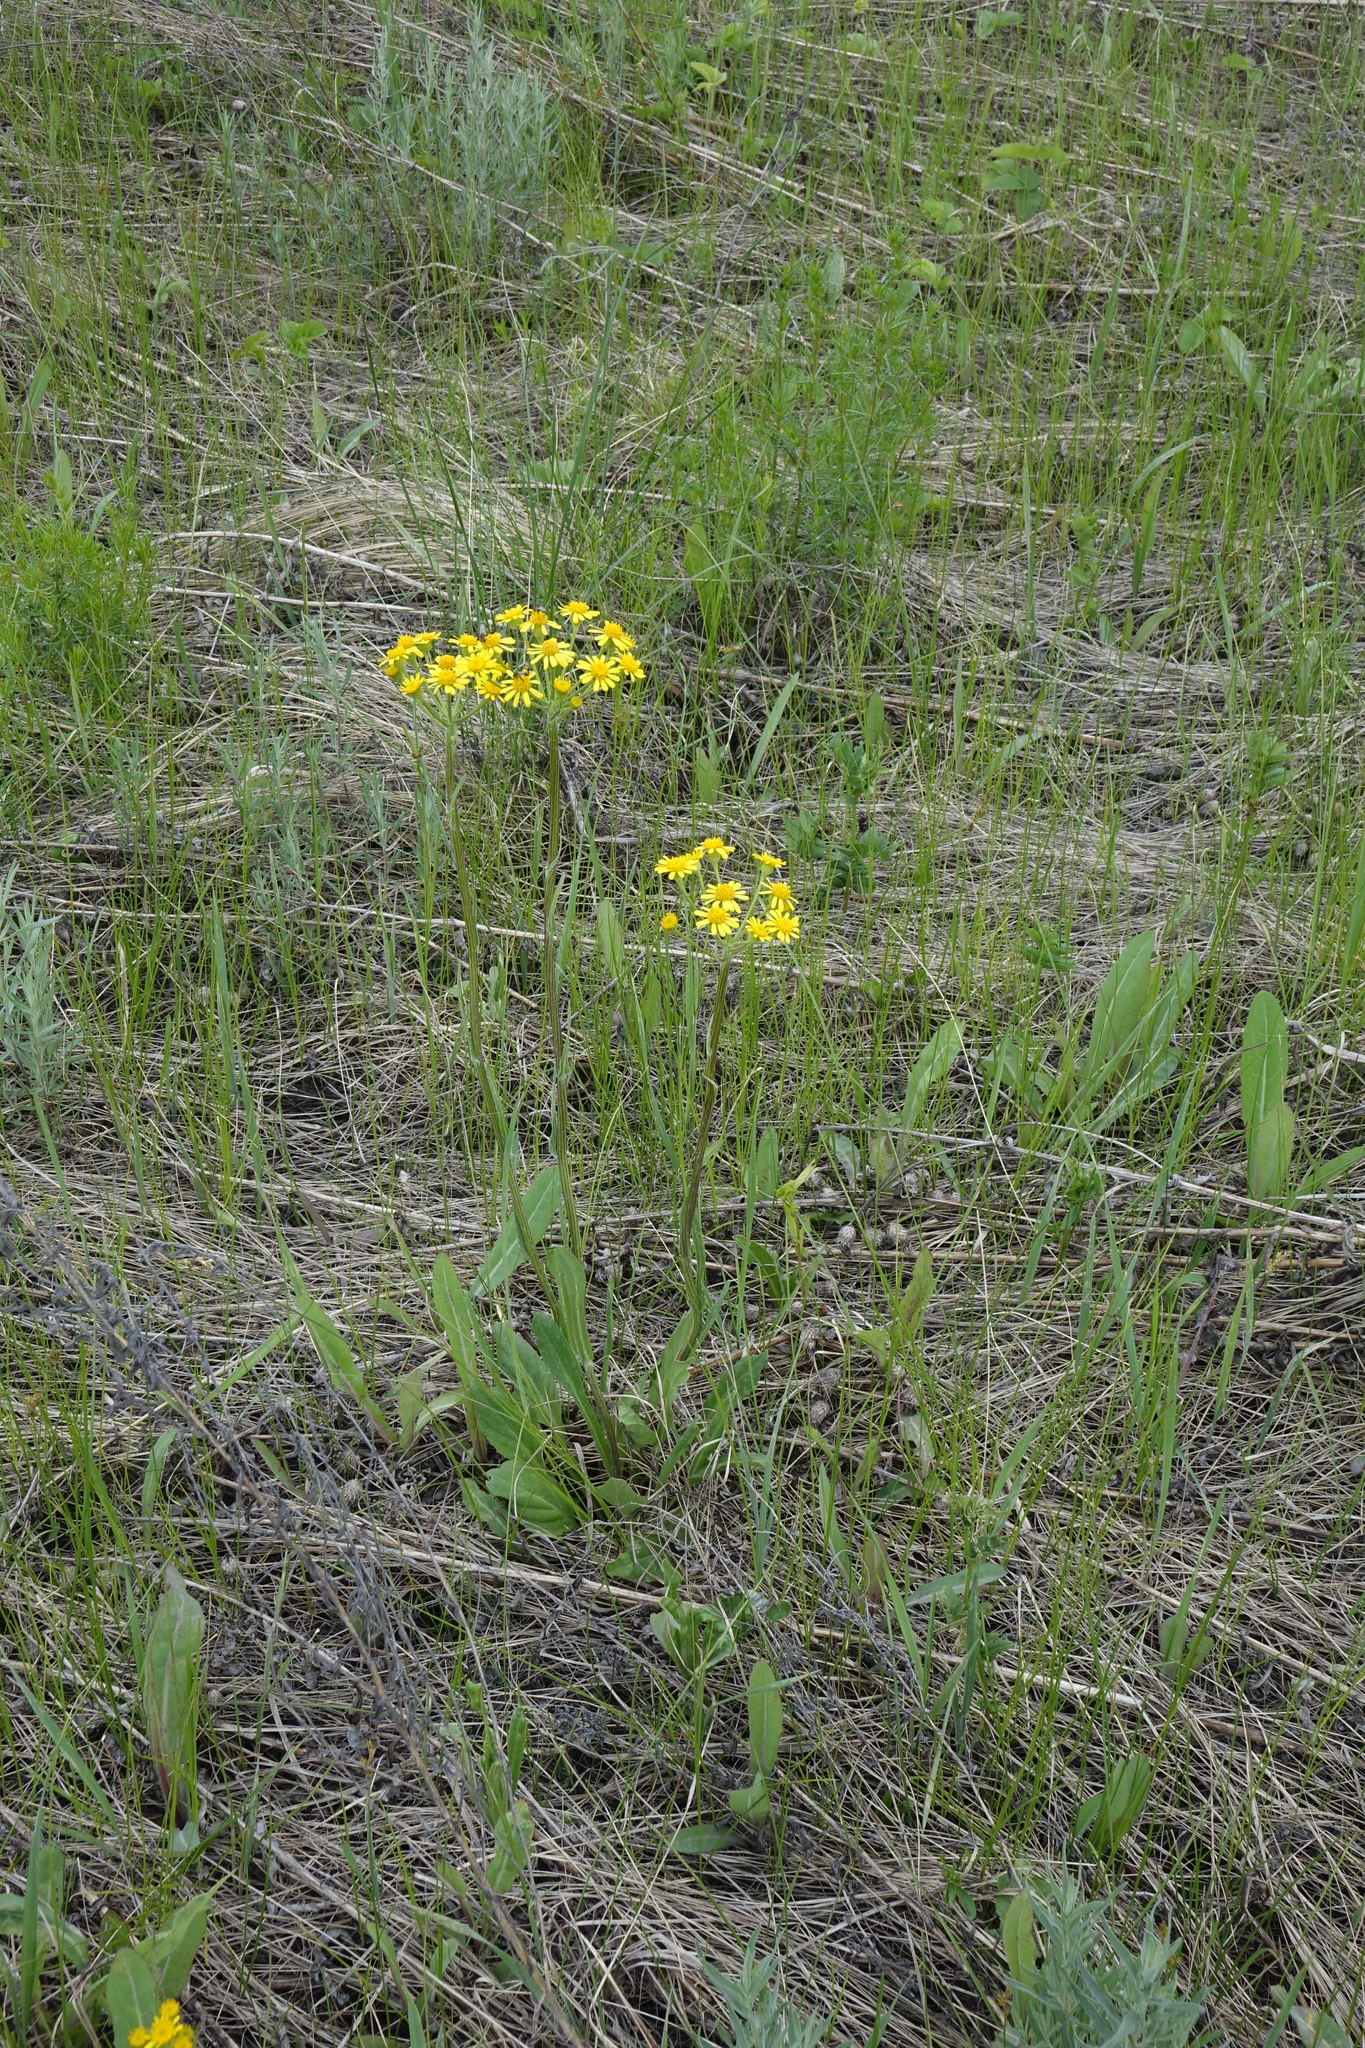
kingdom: Plantae
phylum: Tracheophyta
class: Magnoliopsida
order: Asterales
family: Asteraceae
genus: Tephroseris
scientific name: Tephroseris integrifolia
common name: Field fleawort
